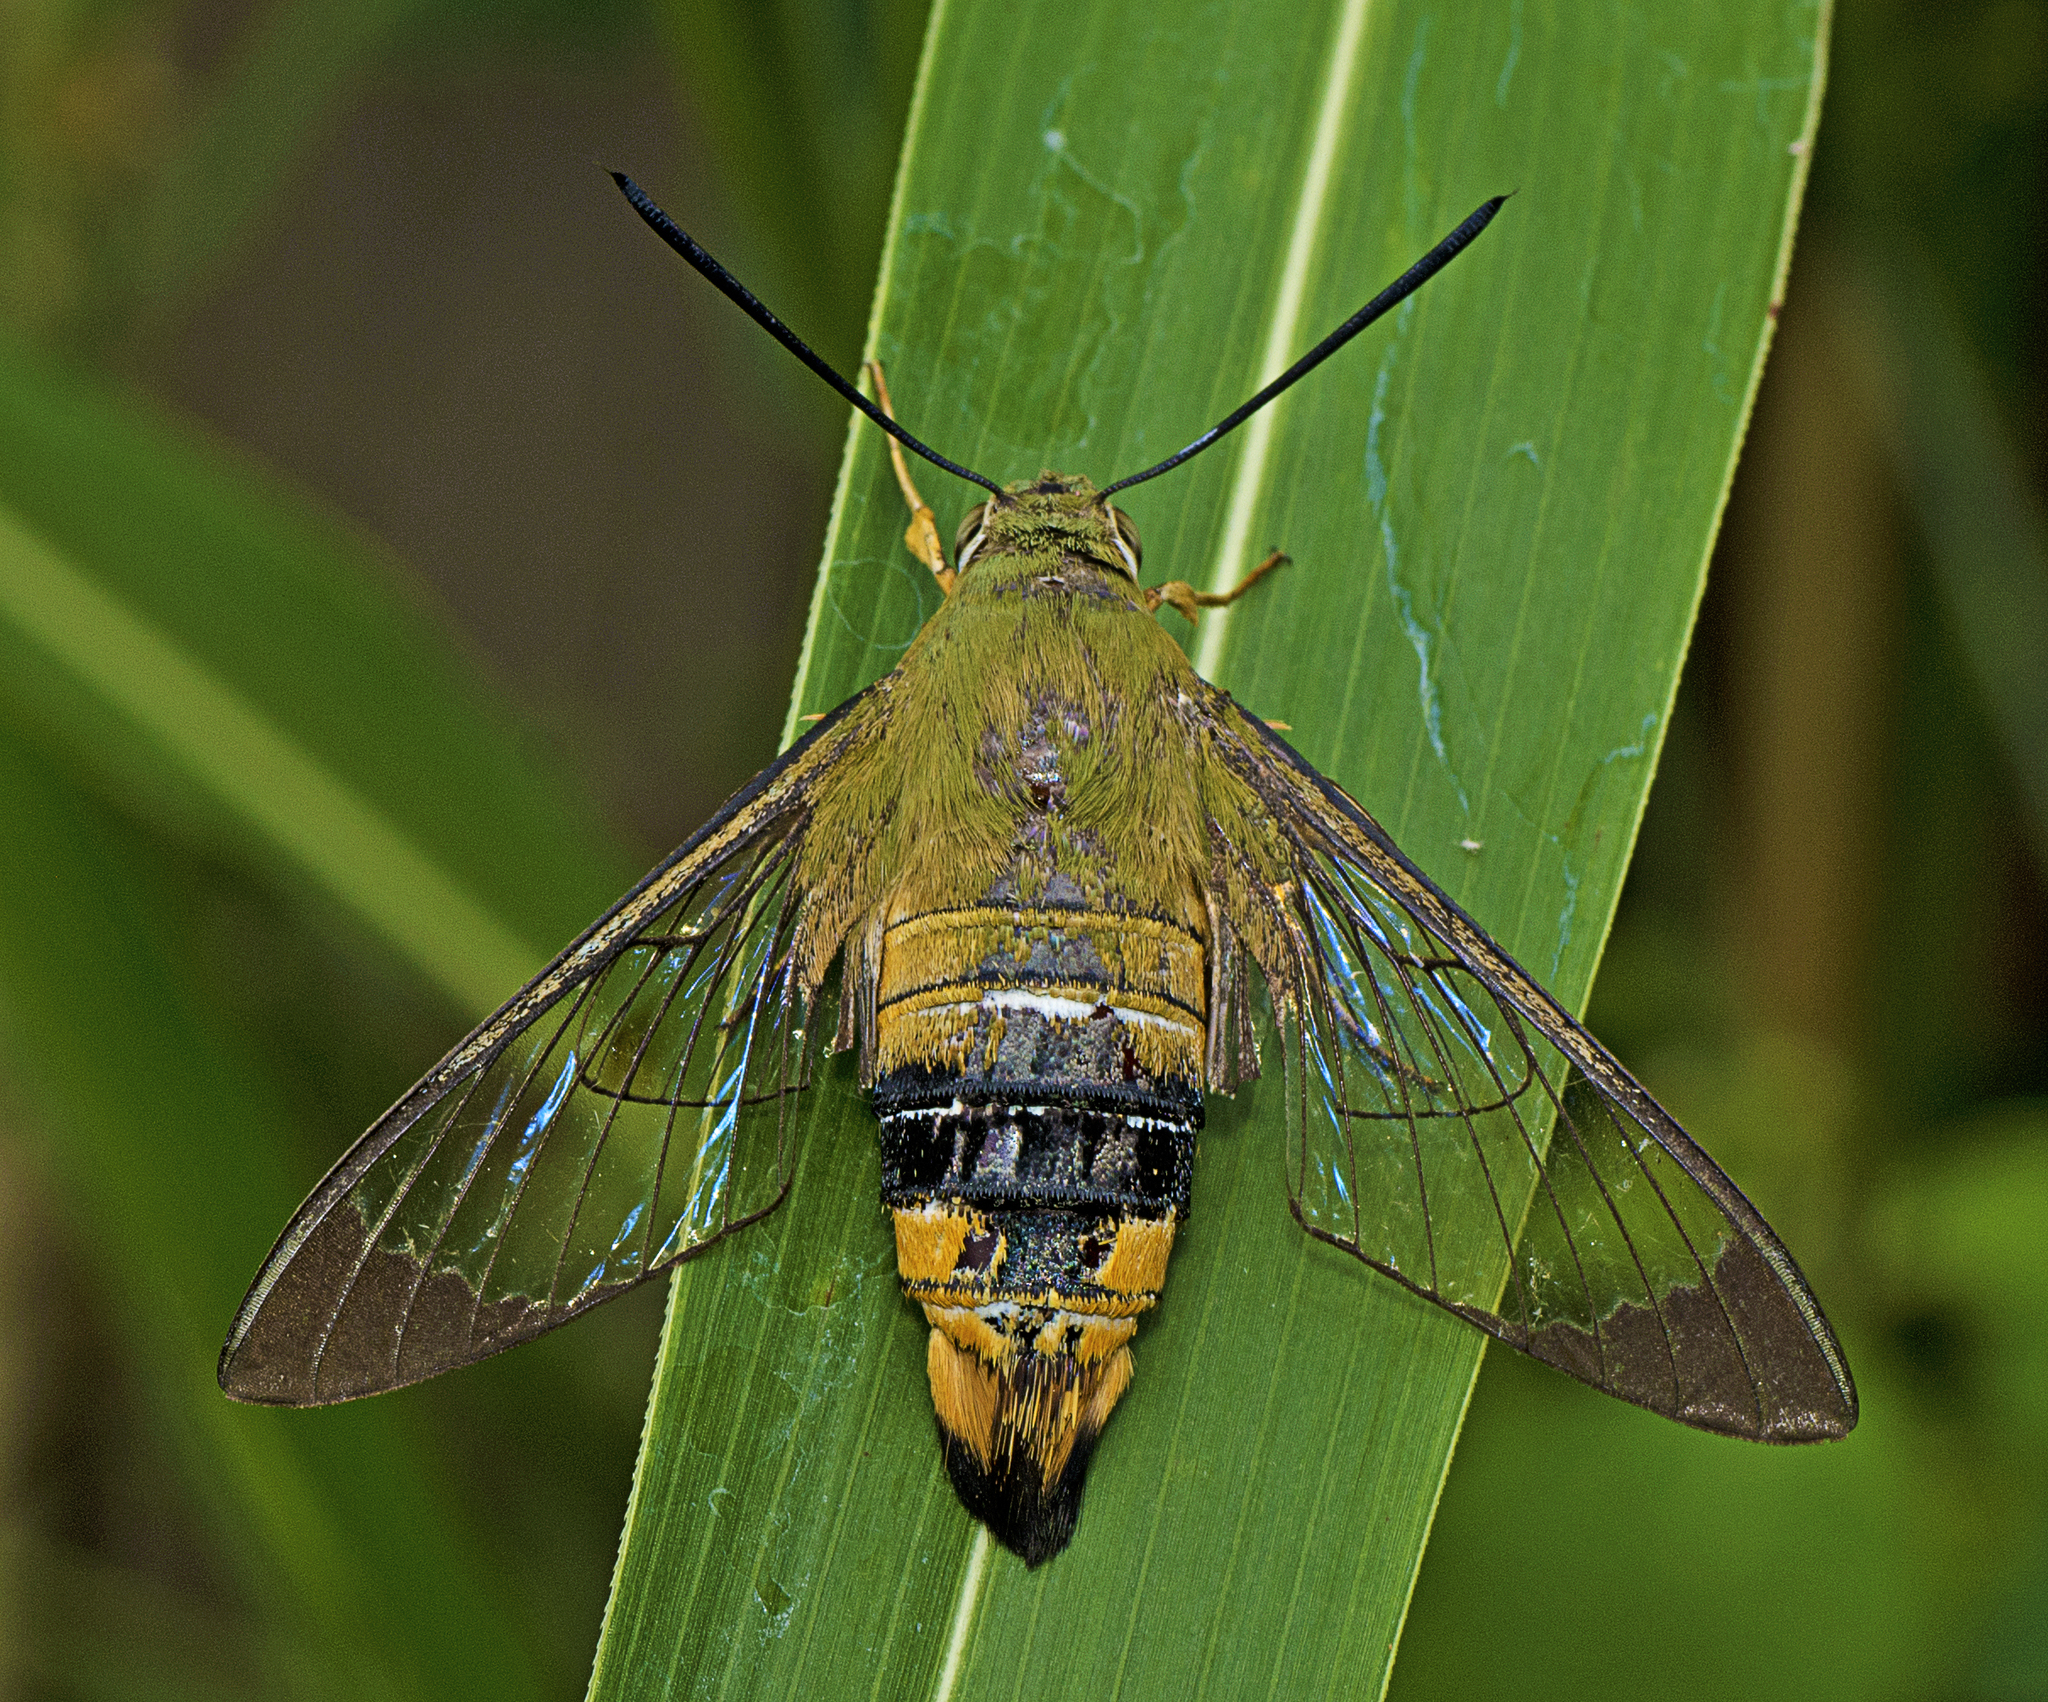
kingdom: Animalia
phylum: Arthropoda
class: Insecta
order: Lepidoptera
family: Sphingidae
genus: Cephonodes
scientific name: Cephonodes kingii
